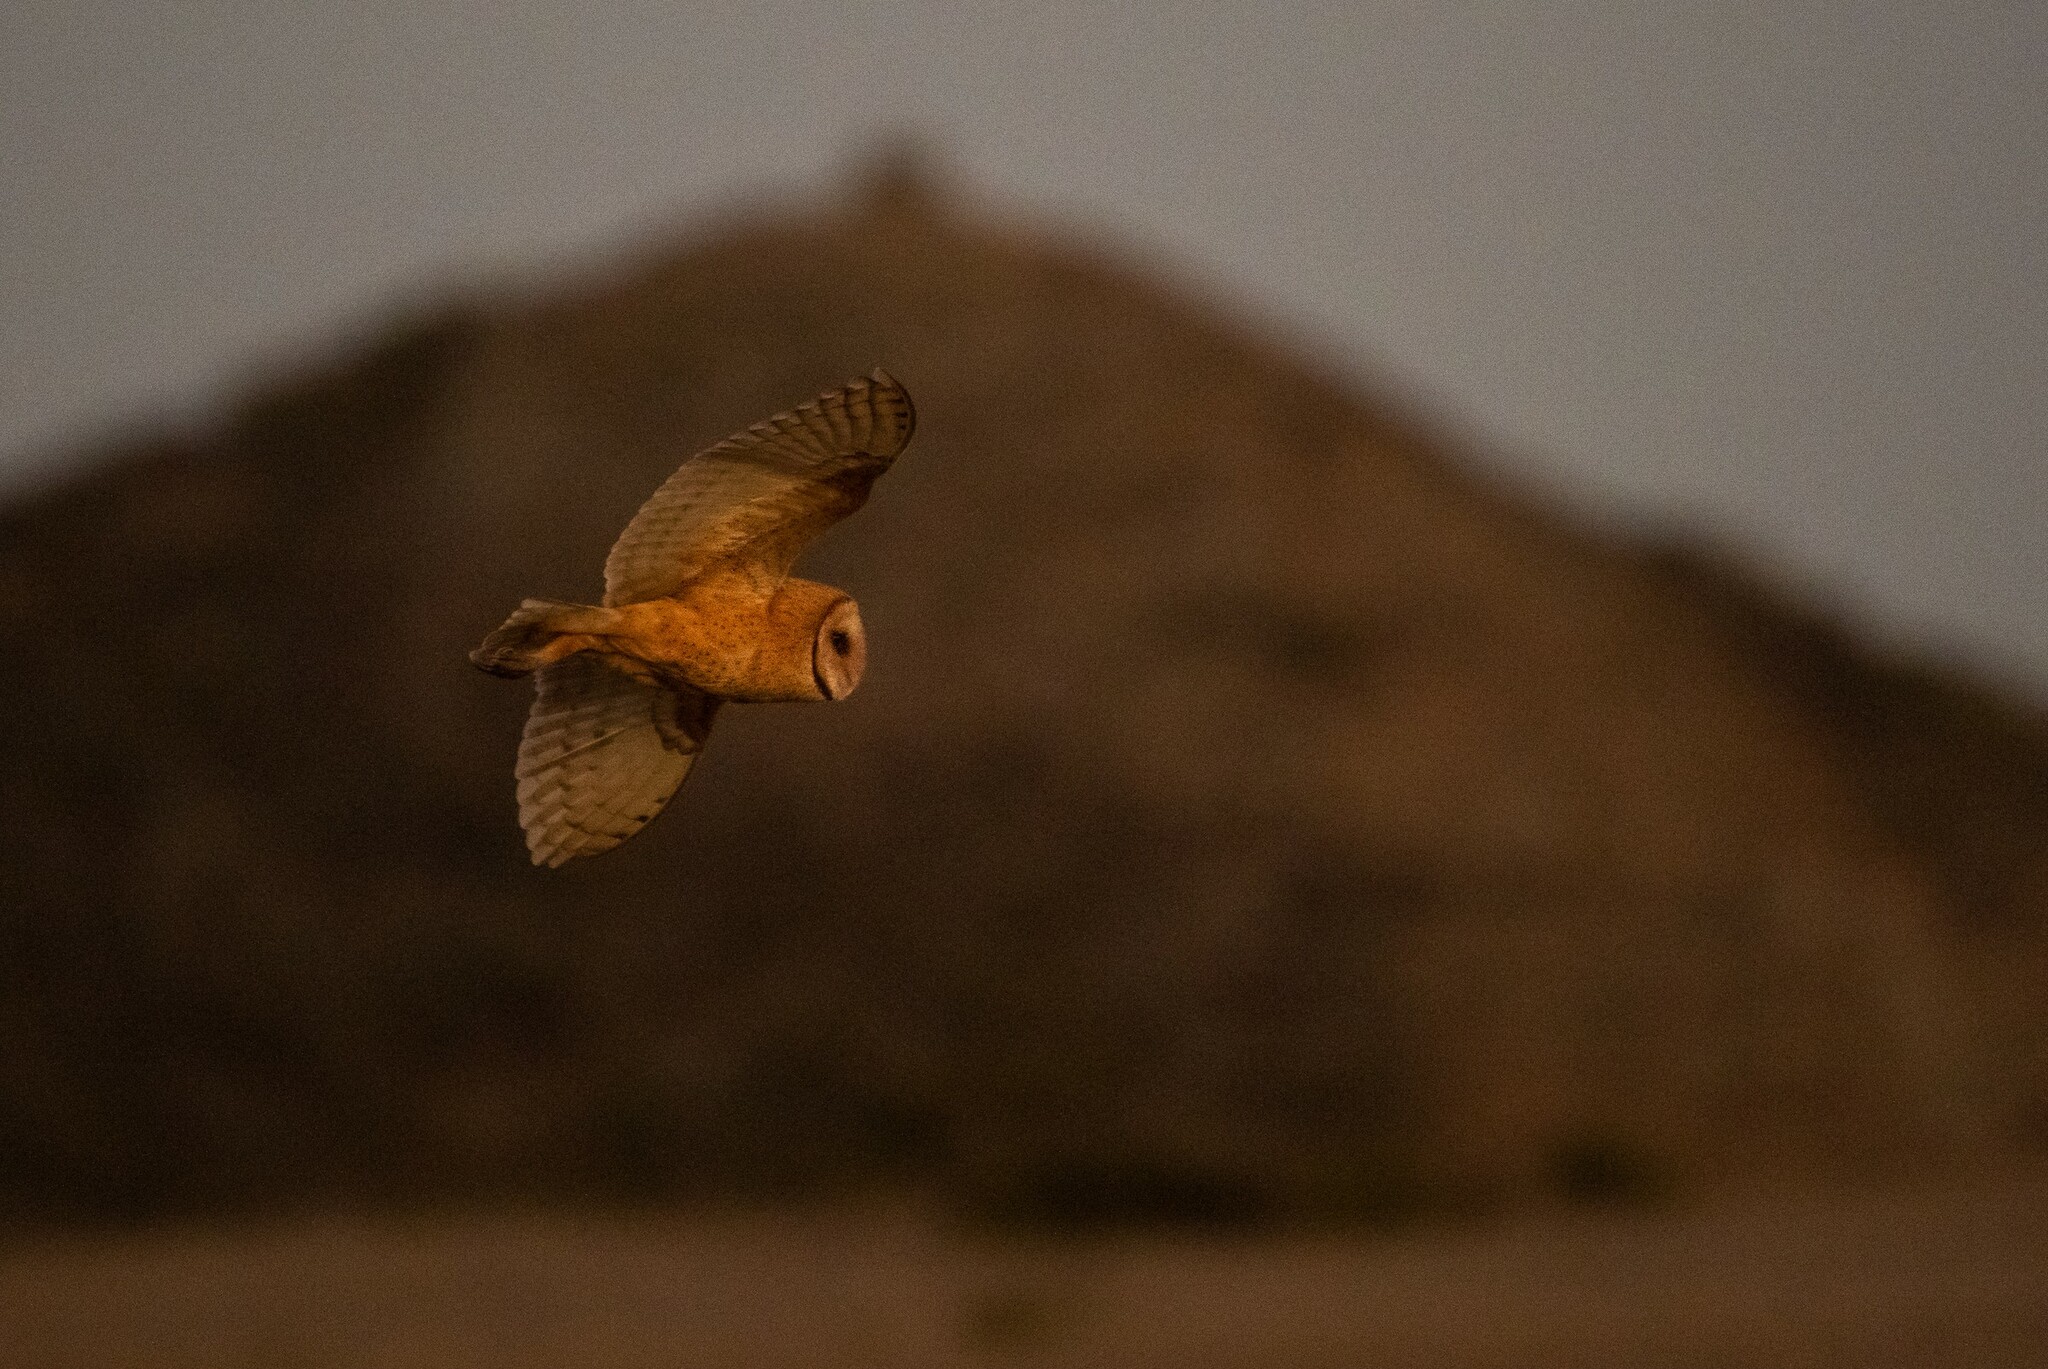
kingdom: Animalia
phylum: Chordata
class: Aves
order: Strigiformes
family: Tytonidae
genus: Tyto
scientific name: Tyto alba
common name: Barn owl
